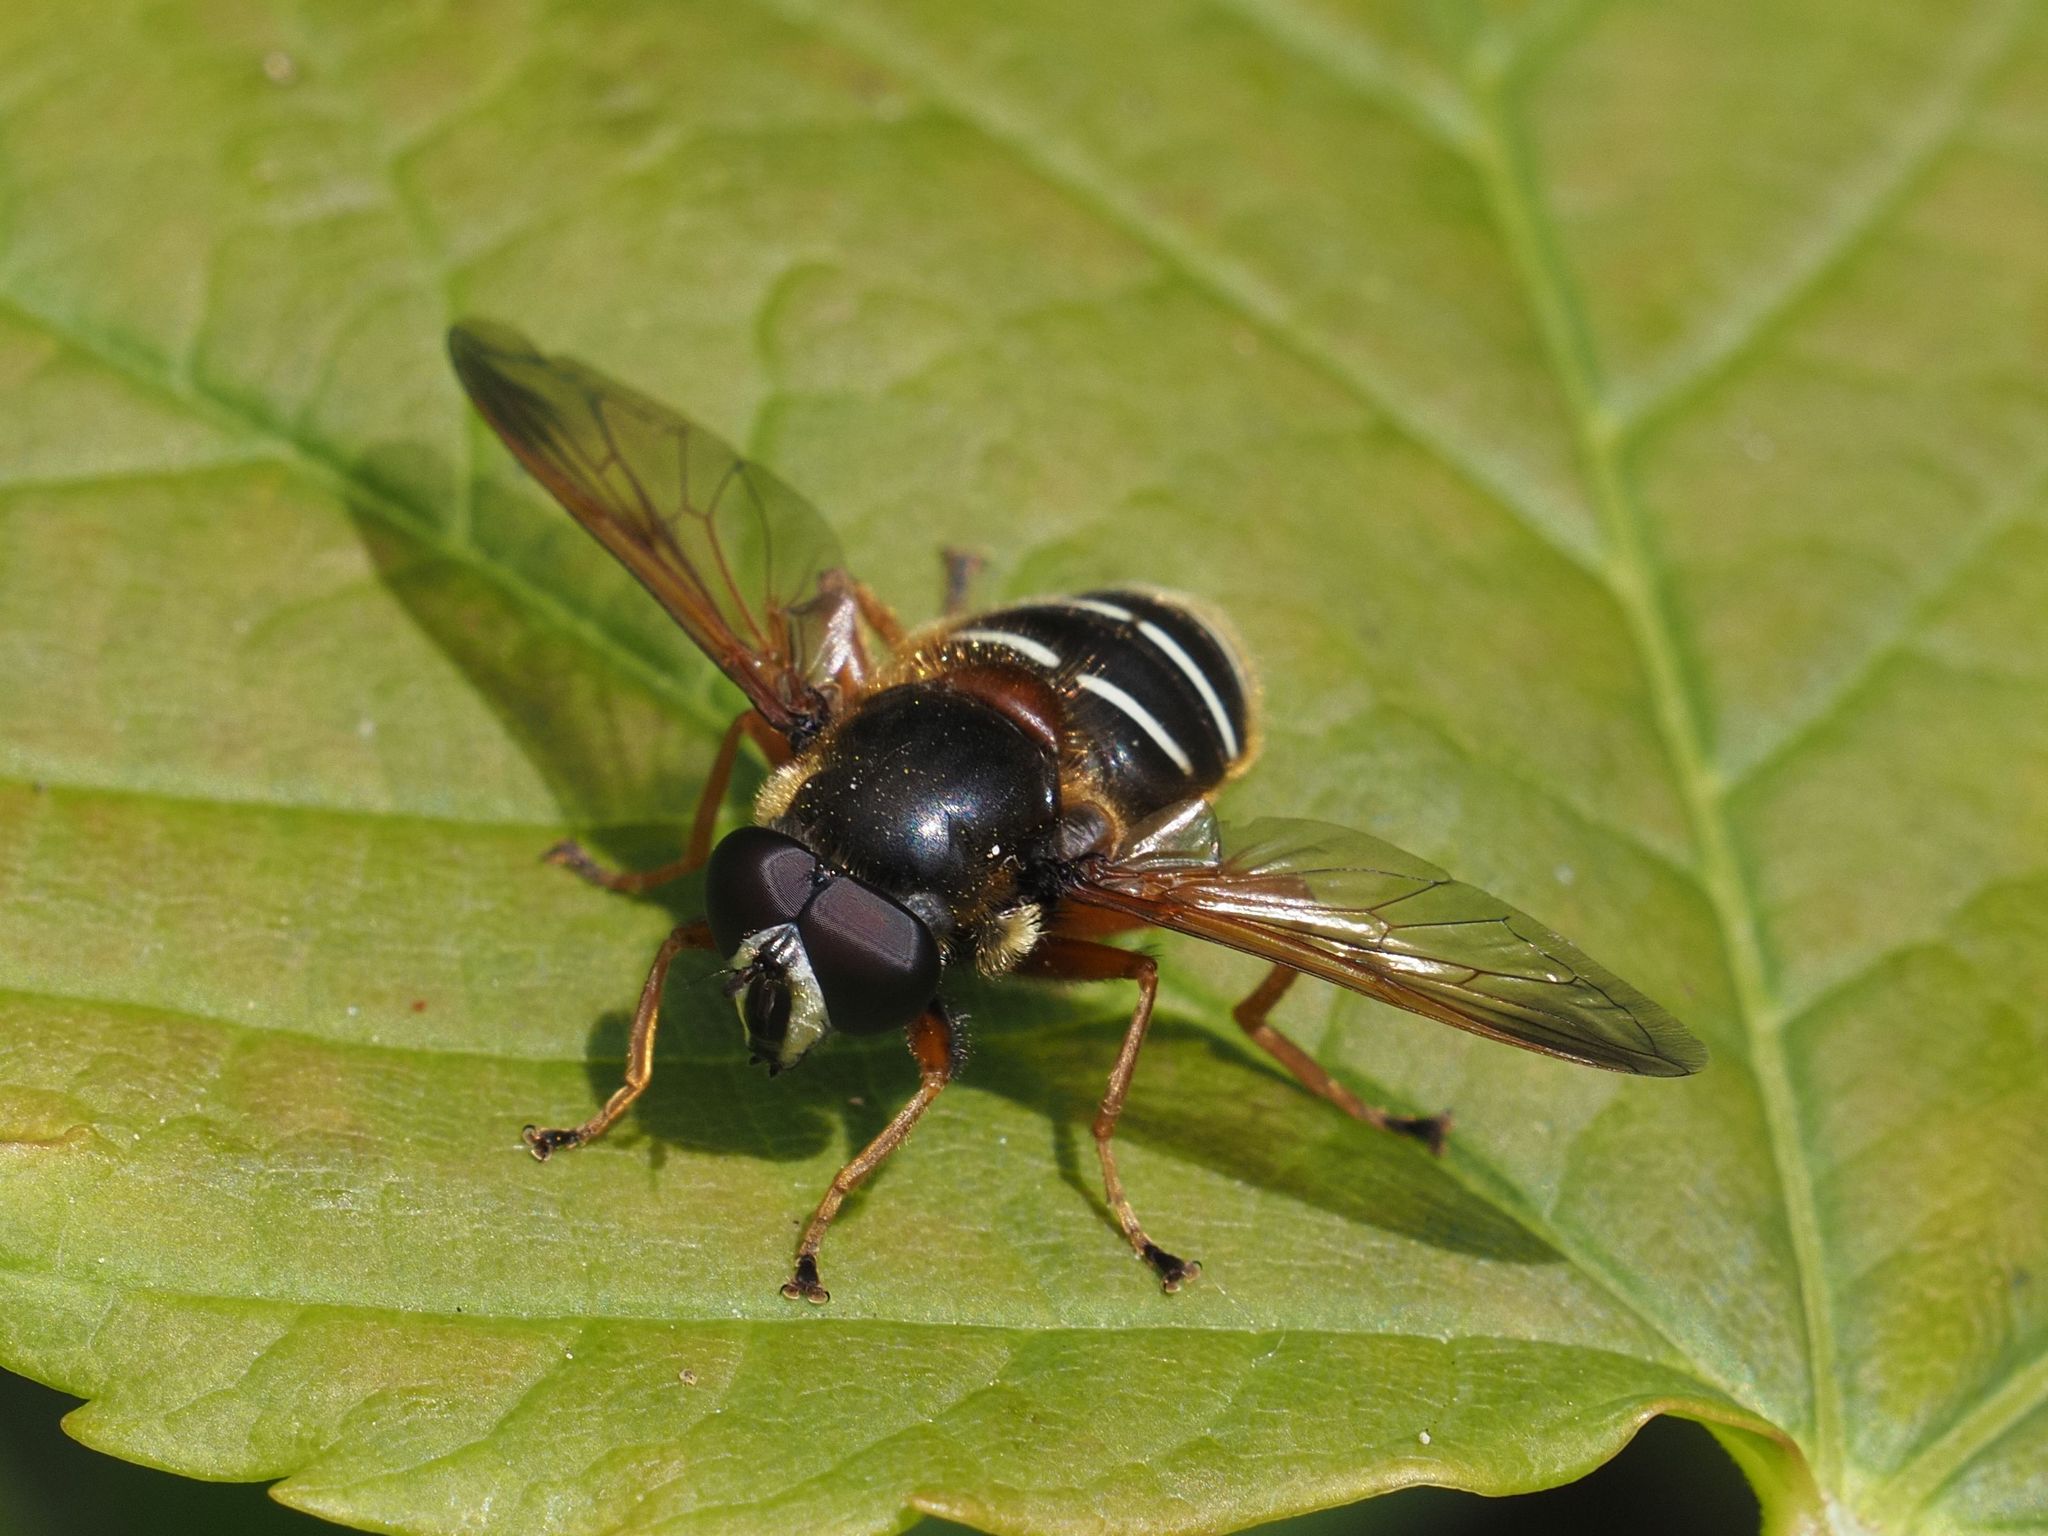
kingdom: Animalia
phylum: Arthropoda
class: Insecta
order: Diptera
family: Syrphidae
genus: Sericomyia
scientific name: Sericomyia lappona
